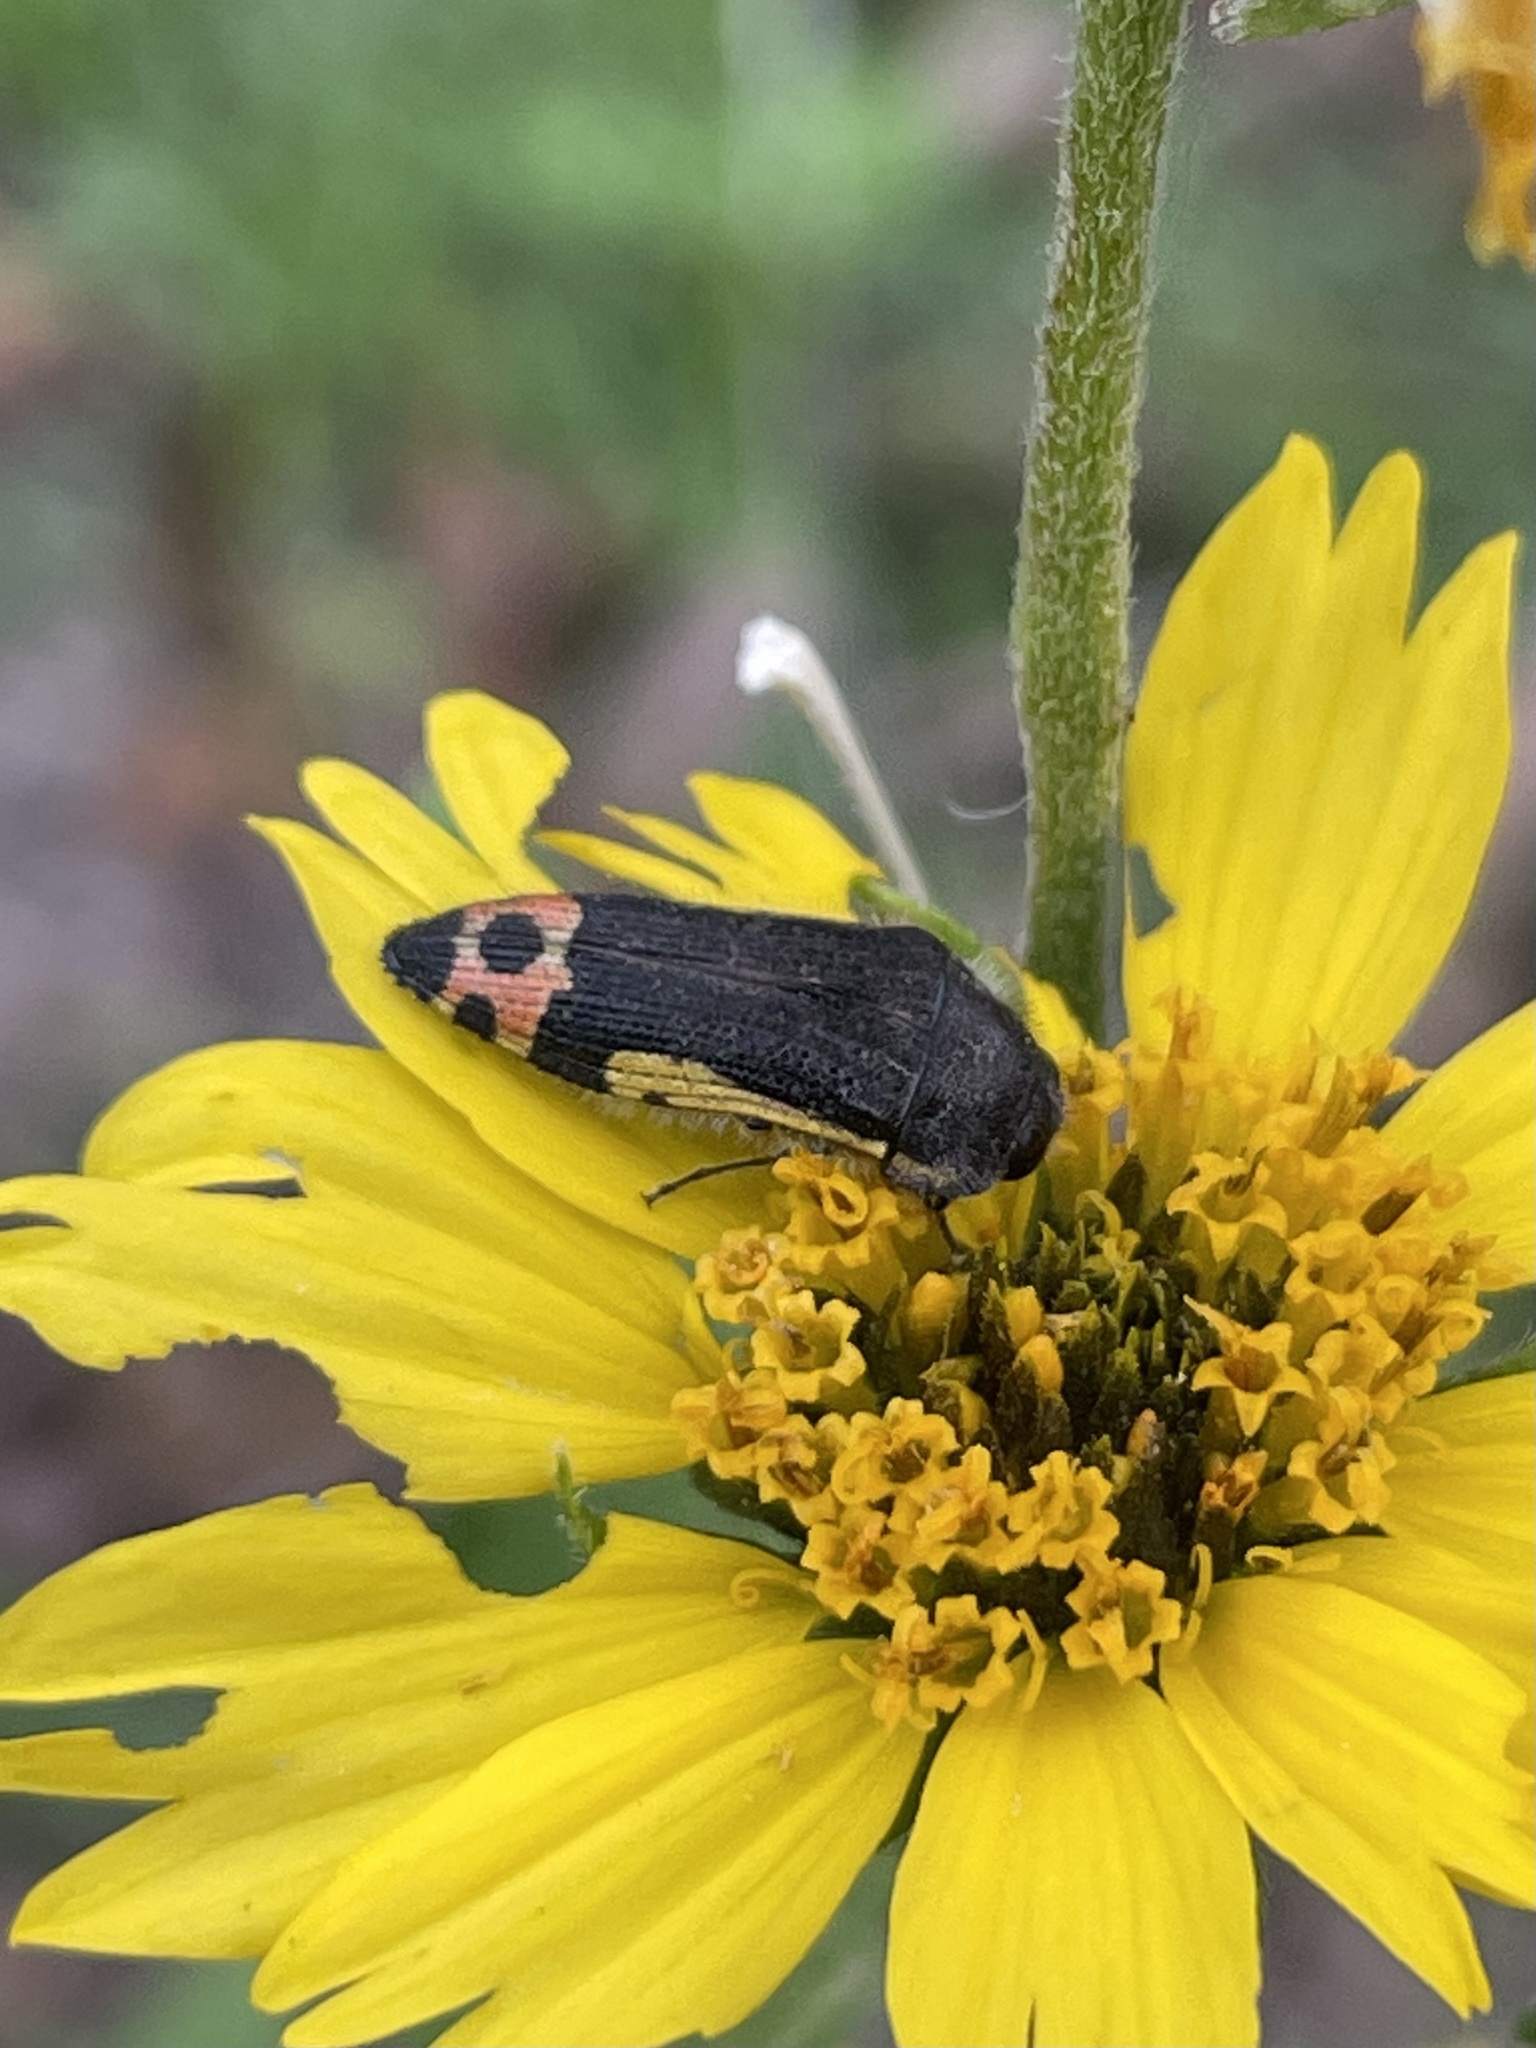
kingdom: Animalia
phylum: Arthropoda
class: Insecta
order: Coleoptera
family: Buprestidae
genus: Acmaeodera
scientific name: Acmaeodera flavomarginata
